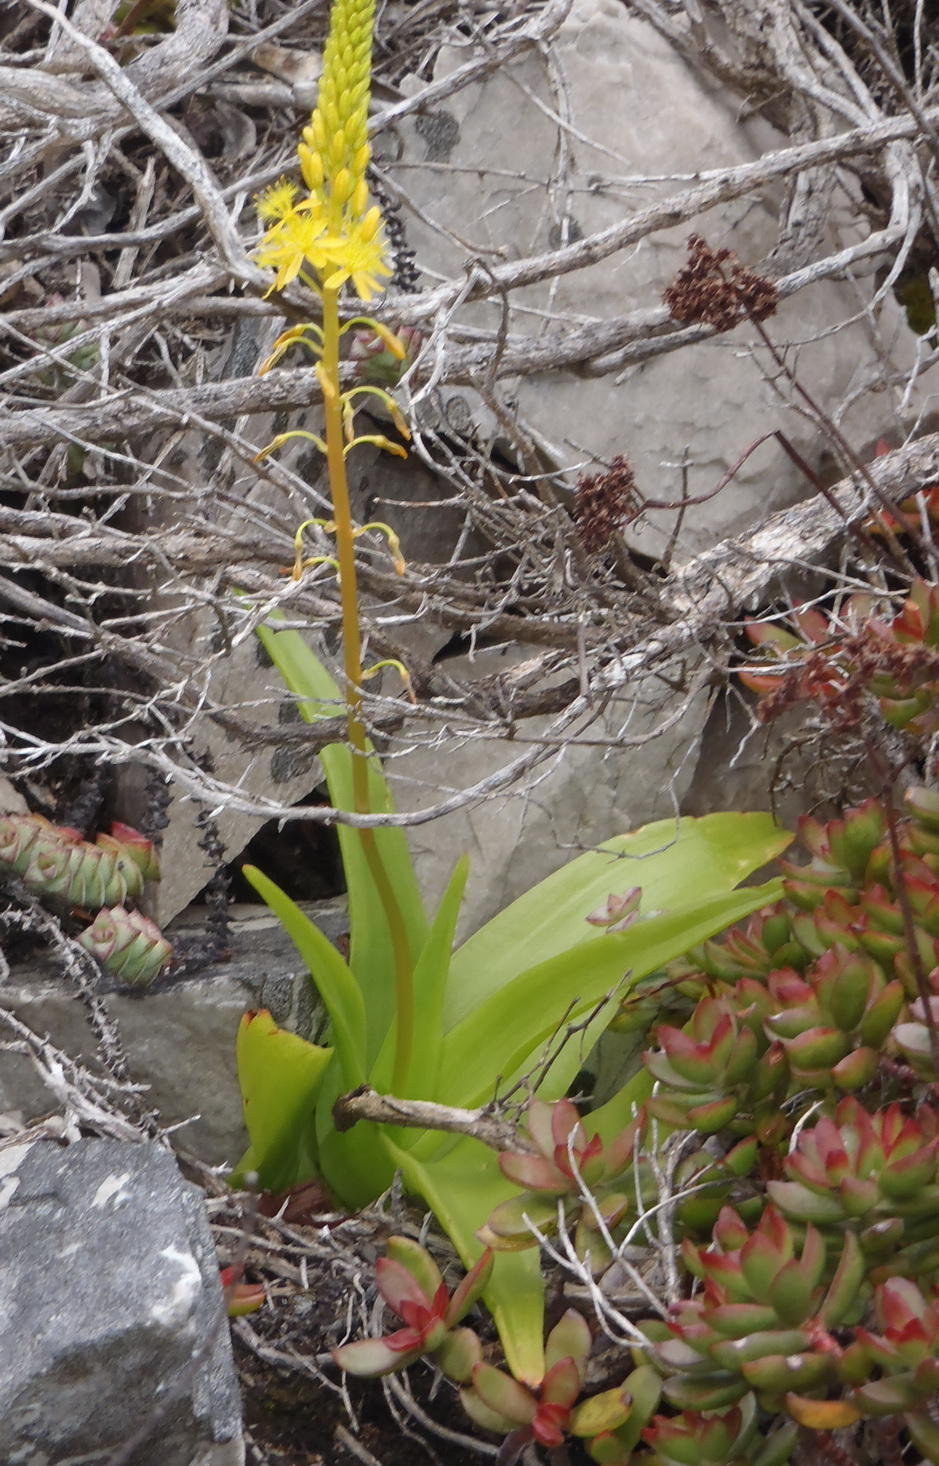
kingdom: Plantae
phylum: Tracheophyta
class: Liliopsida
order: Asparagales
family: Asphodelaceae
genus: Bulbine
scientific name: Bulbine latifolia
